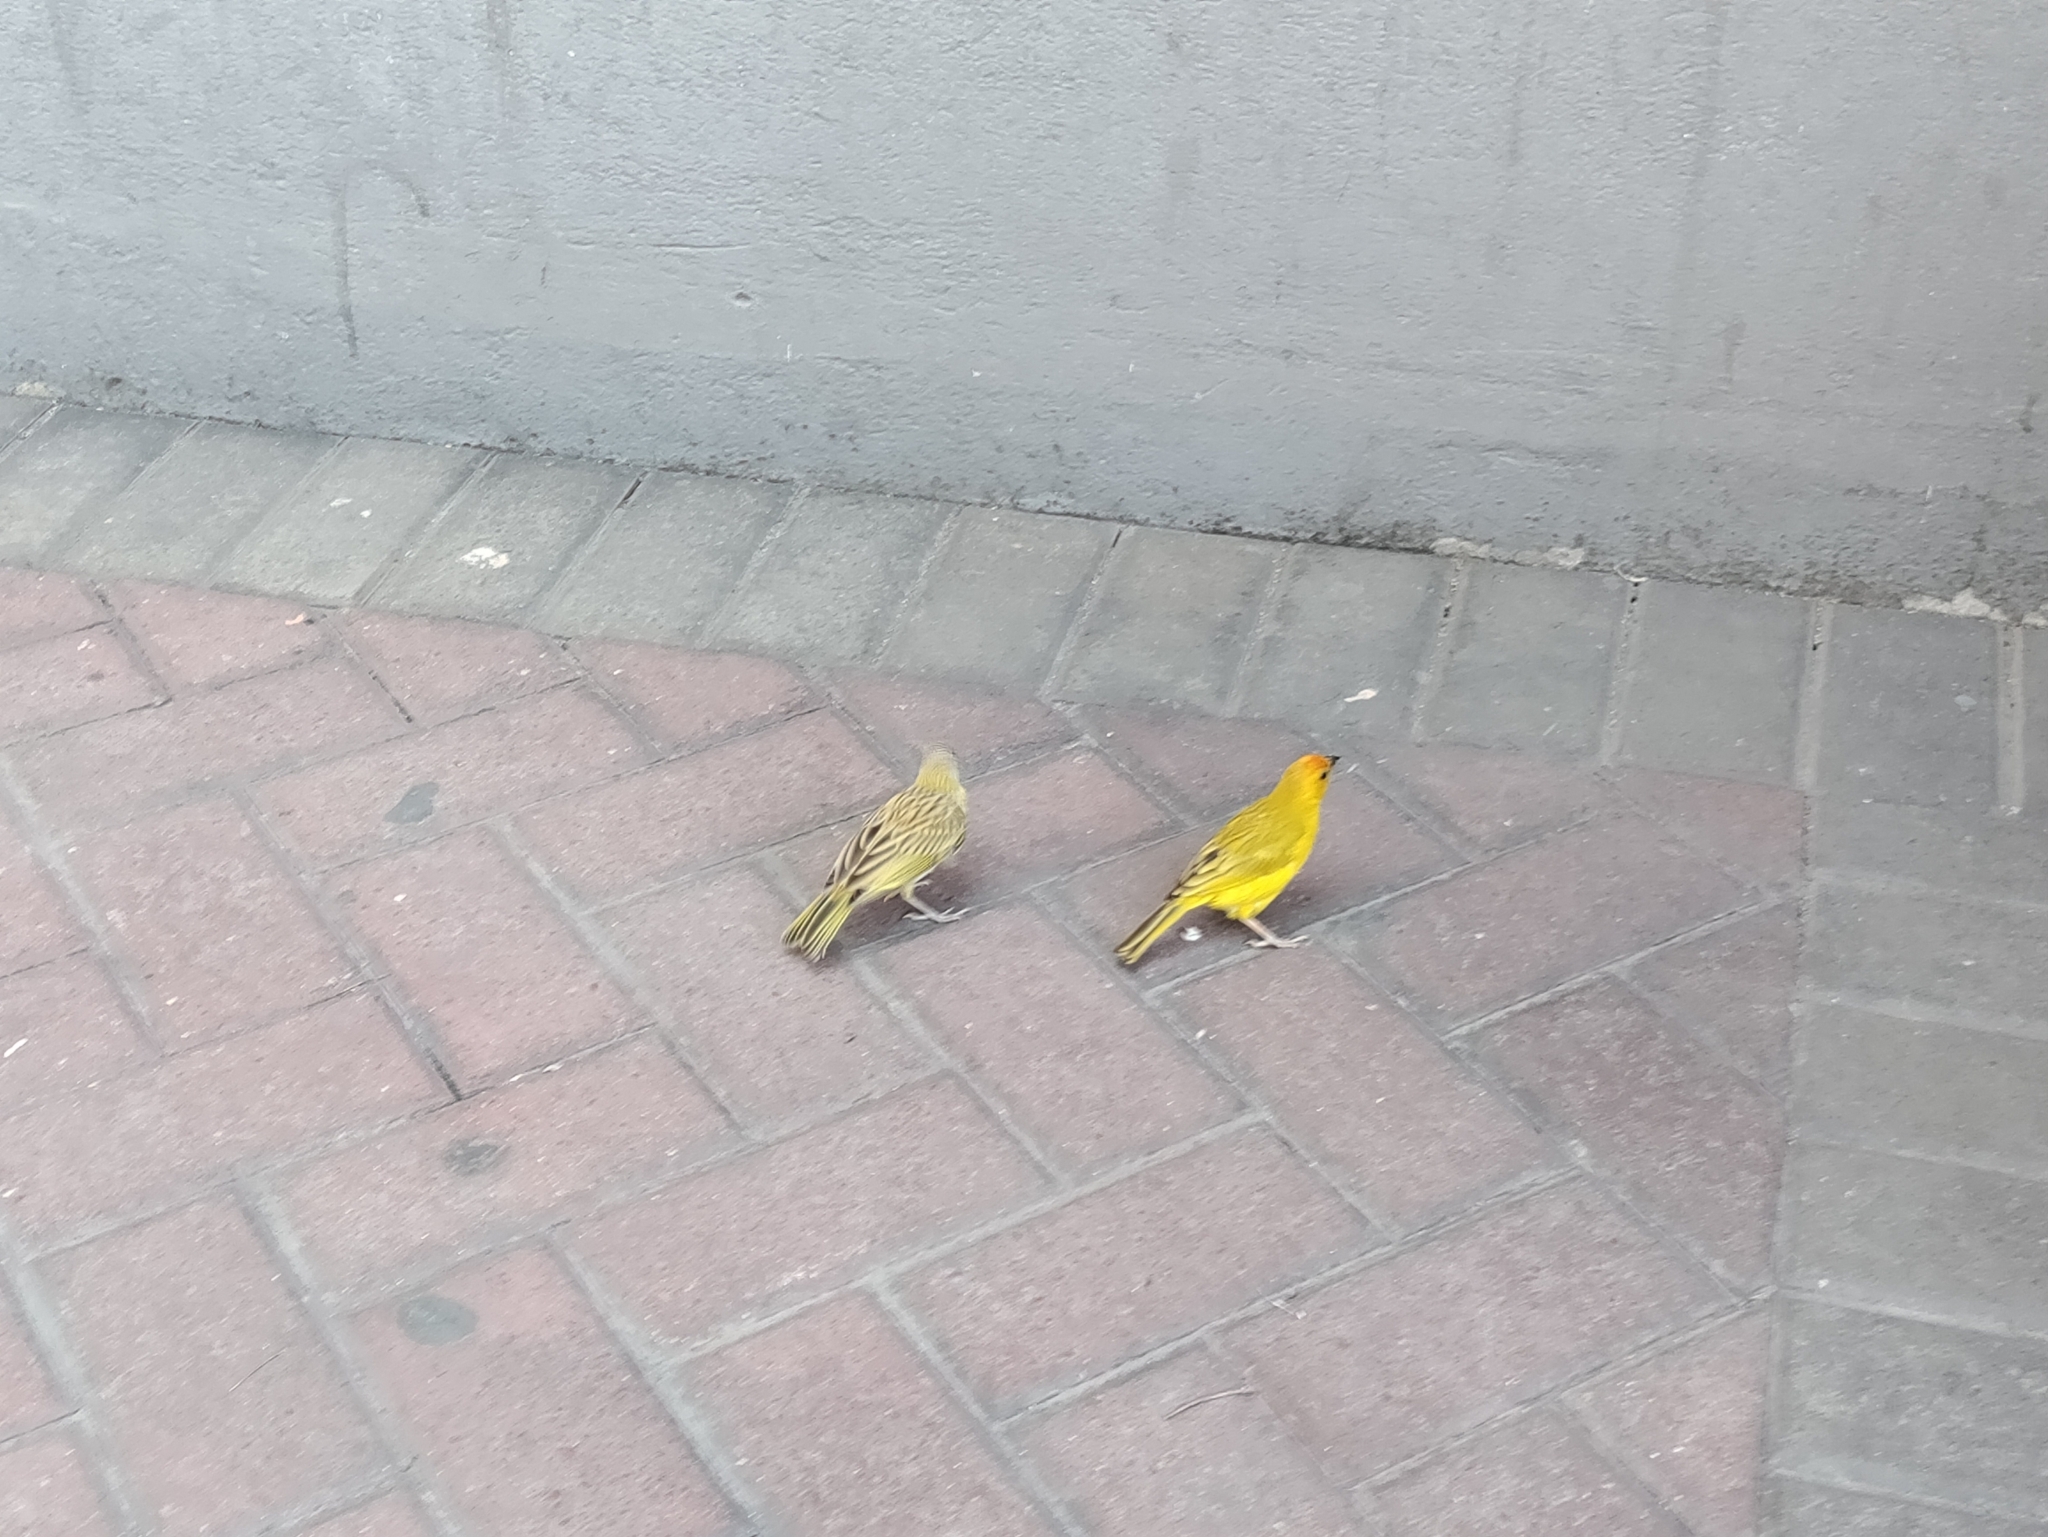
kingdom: Animalia
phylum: Chordata
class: Aves
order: Passeriformes
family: Thraupidae
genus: Sicalis
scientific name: Sicalis flaveola
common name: Saffron finch
